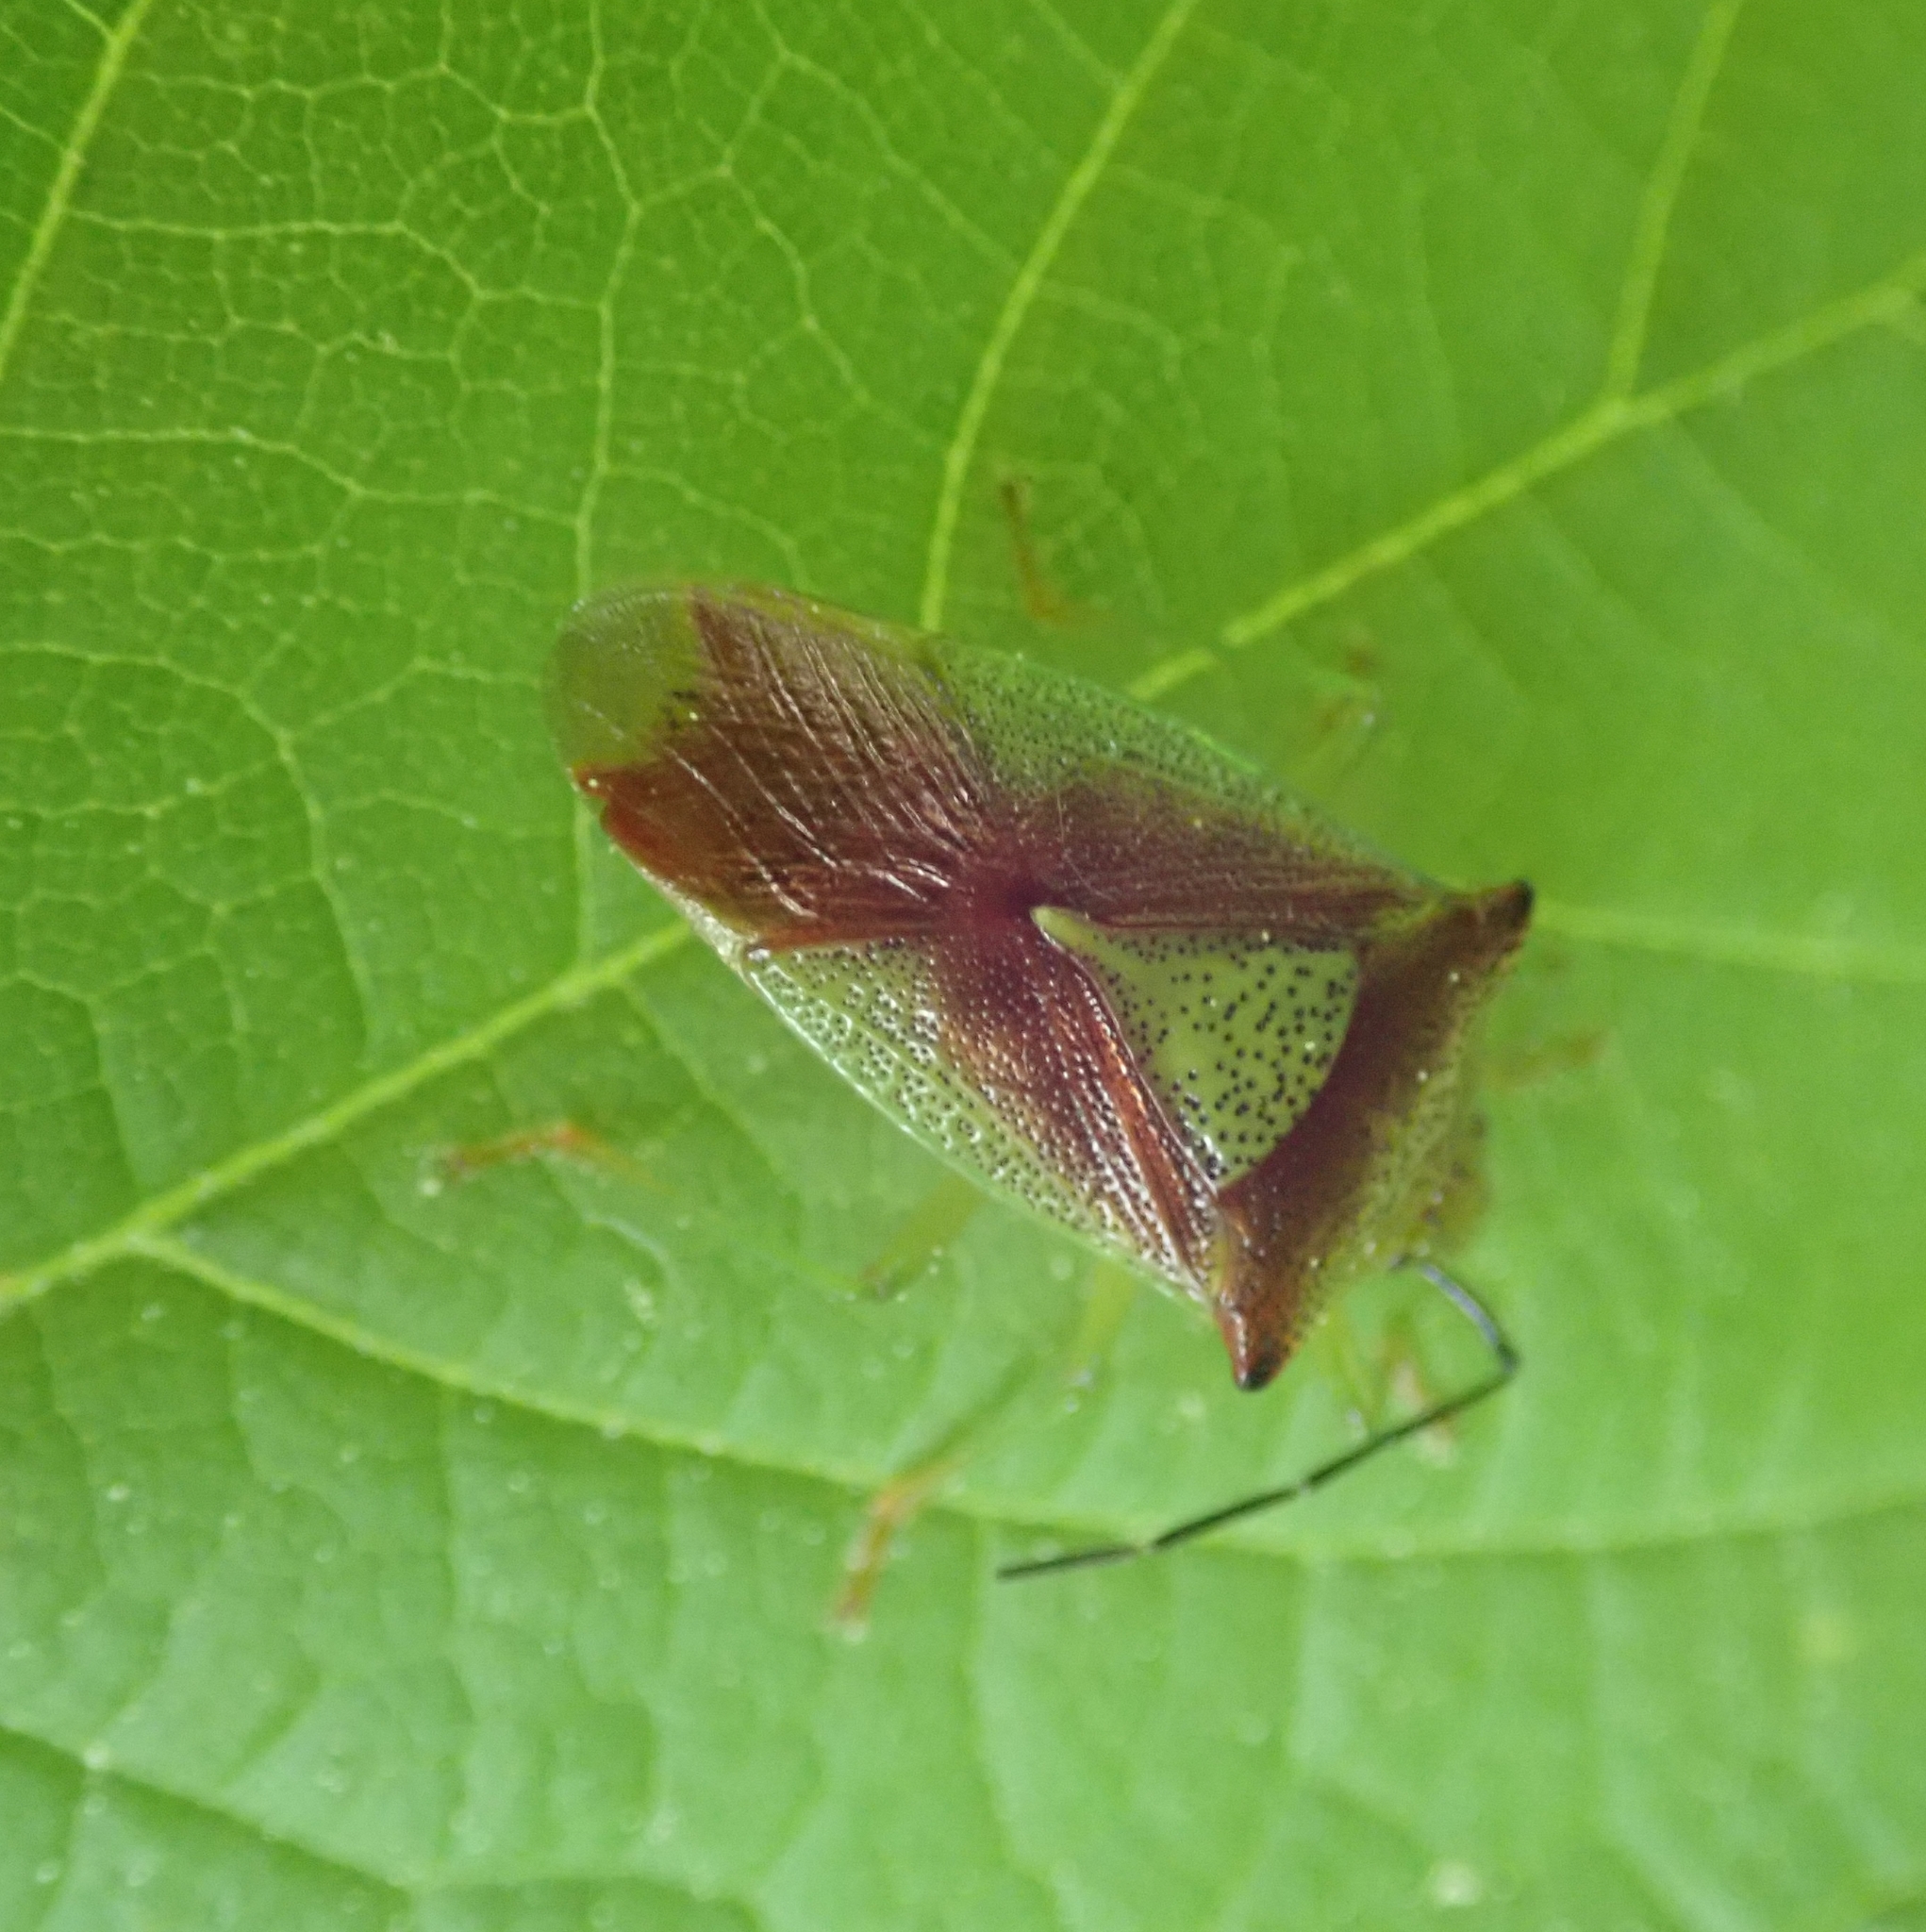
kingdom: Animalia
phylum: Arthropoda
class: Insecta
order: Hemiptera
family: Acanthosomatidae
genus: Acanthosoma
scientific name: Acanthosoma haemorrhoidale
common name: Hawthorn shieldbug
